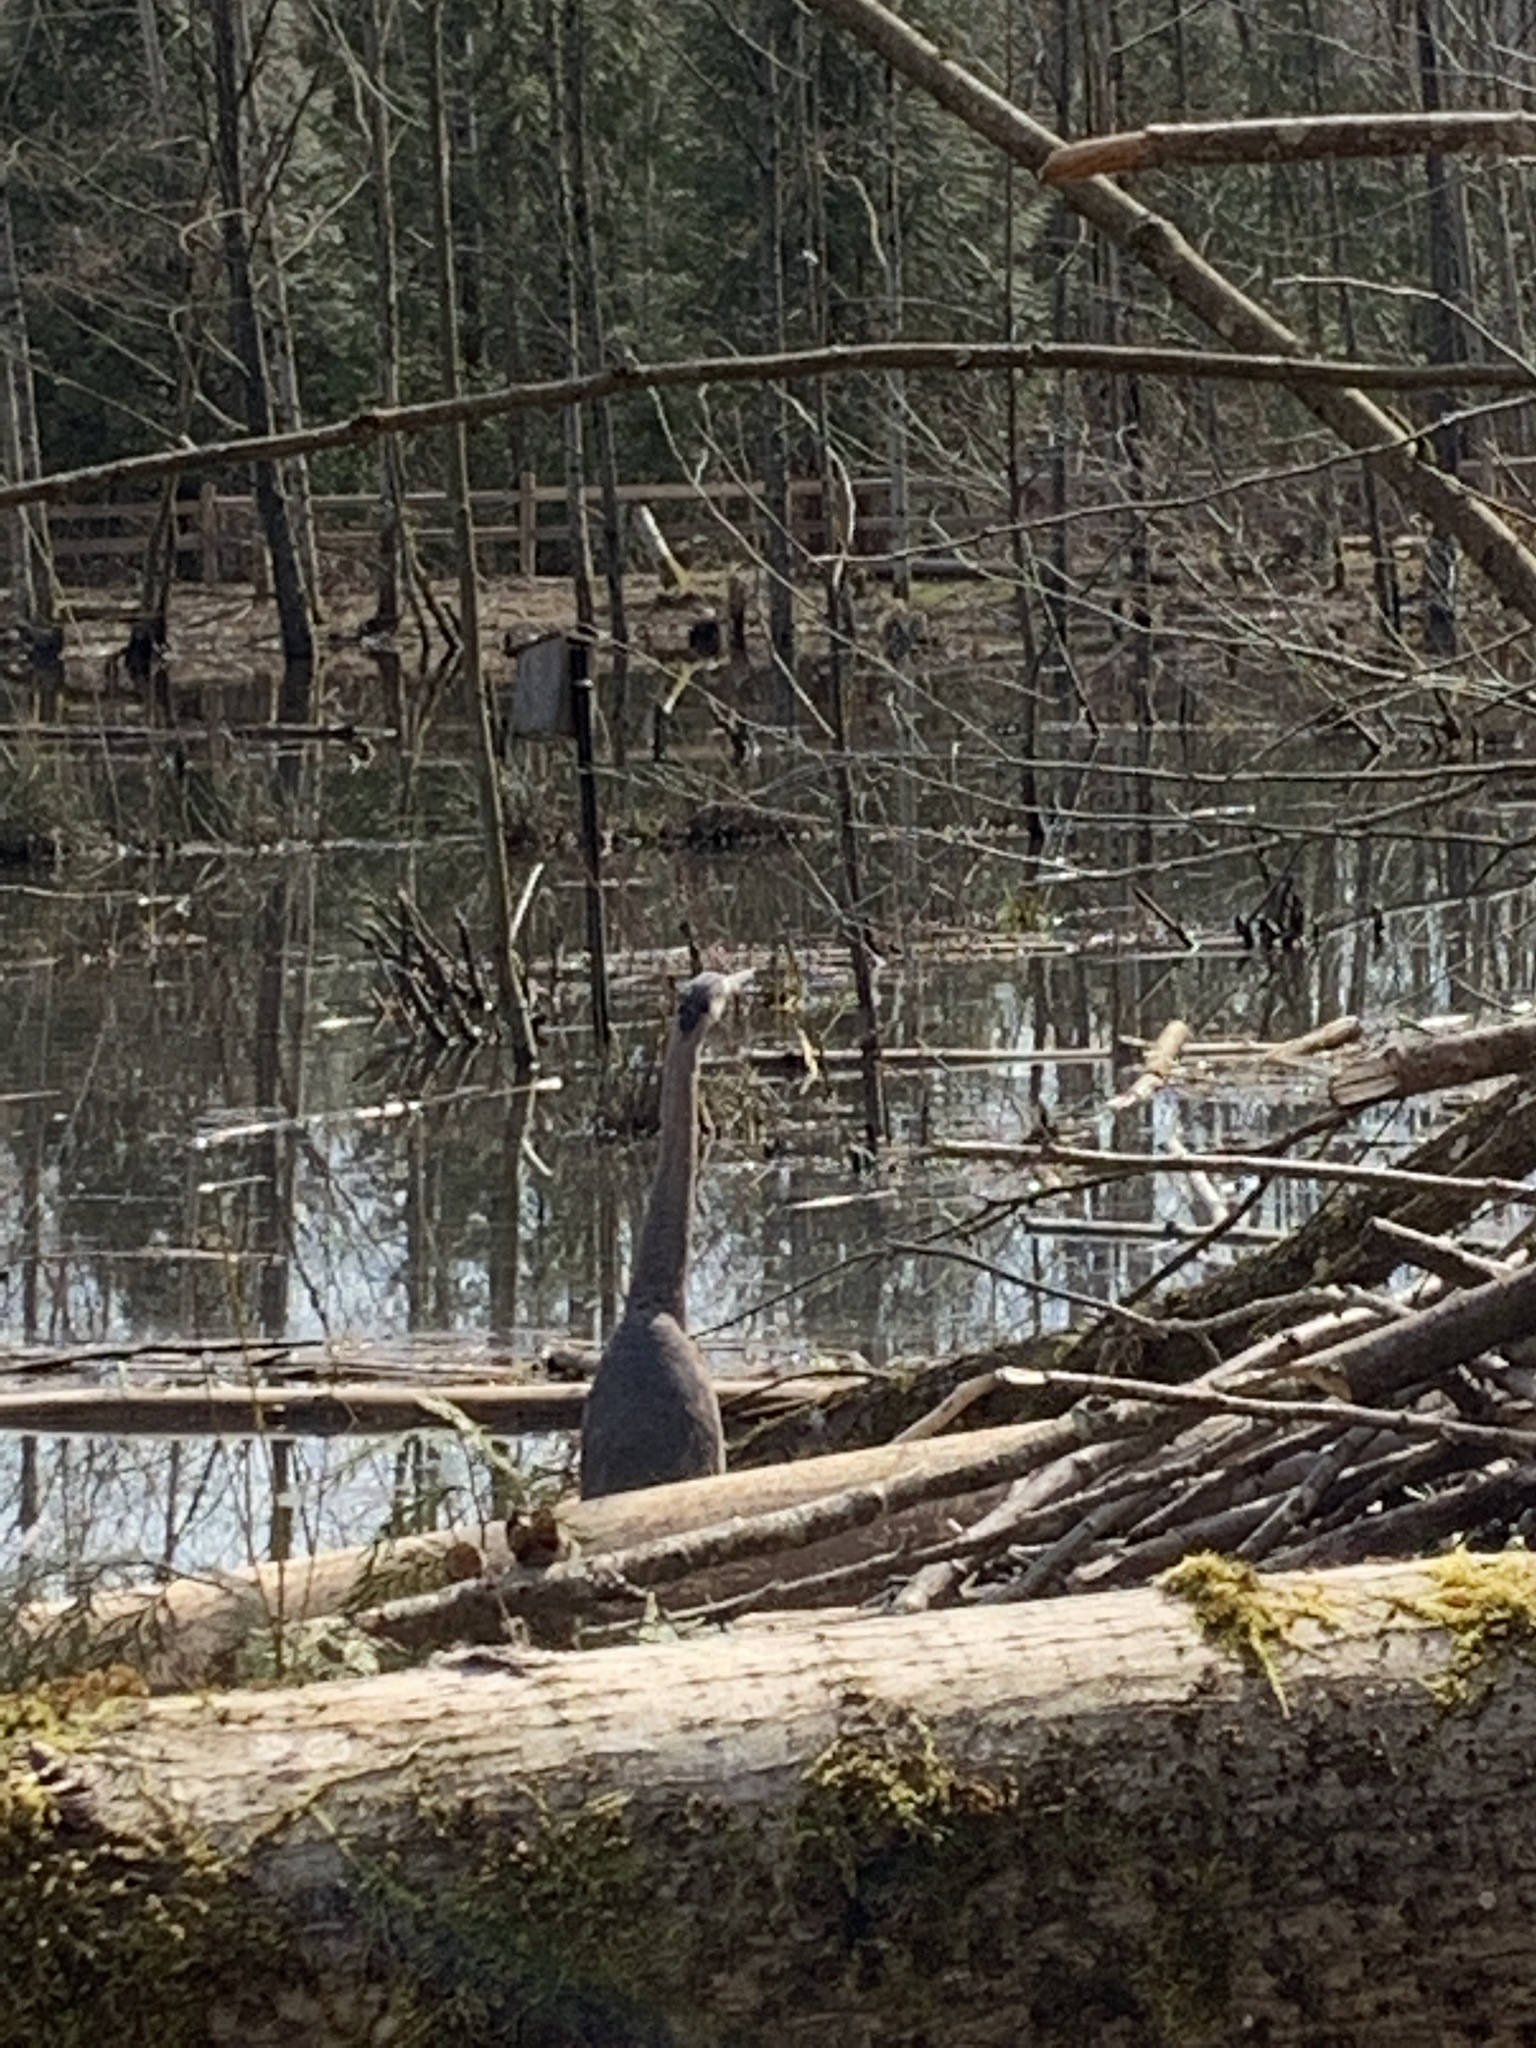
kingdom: Animalia
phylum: Chordata
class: Aves
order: Pelecaniformes
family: Ardeidae
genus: Ardea
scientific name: Ardea herodias
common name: Great blue heron
